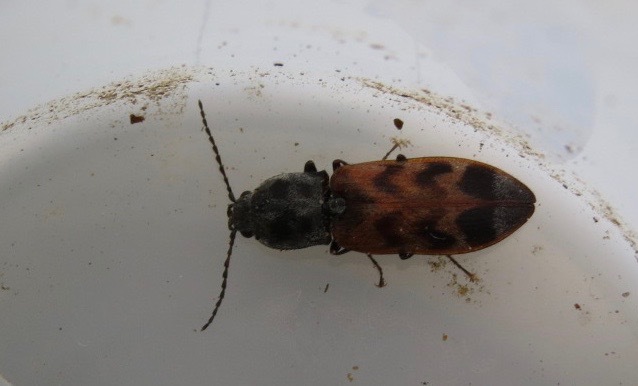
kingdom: Animalia
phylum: Arthropoda
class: Insecta
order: Coleoptera
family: Elateridae
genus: Pseudanostirus
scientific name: Pseudanostirus tigrinus
